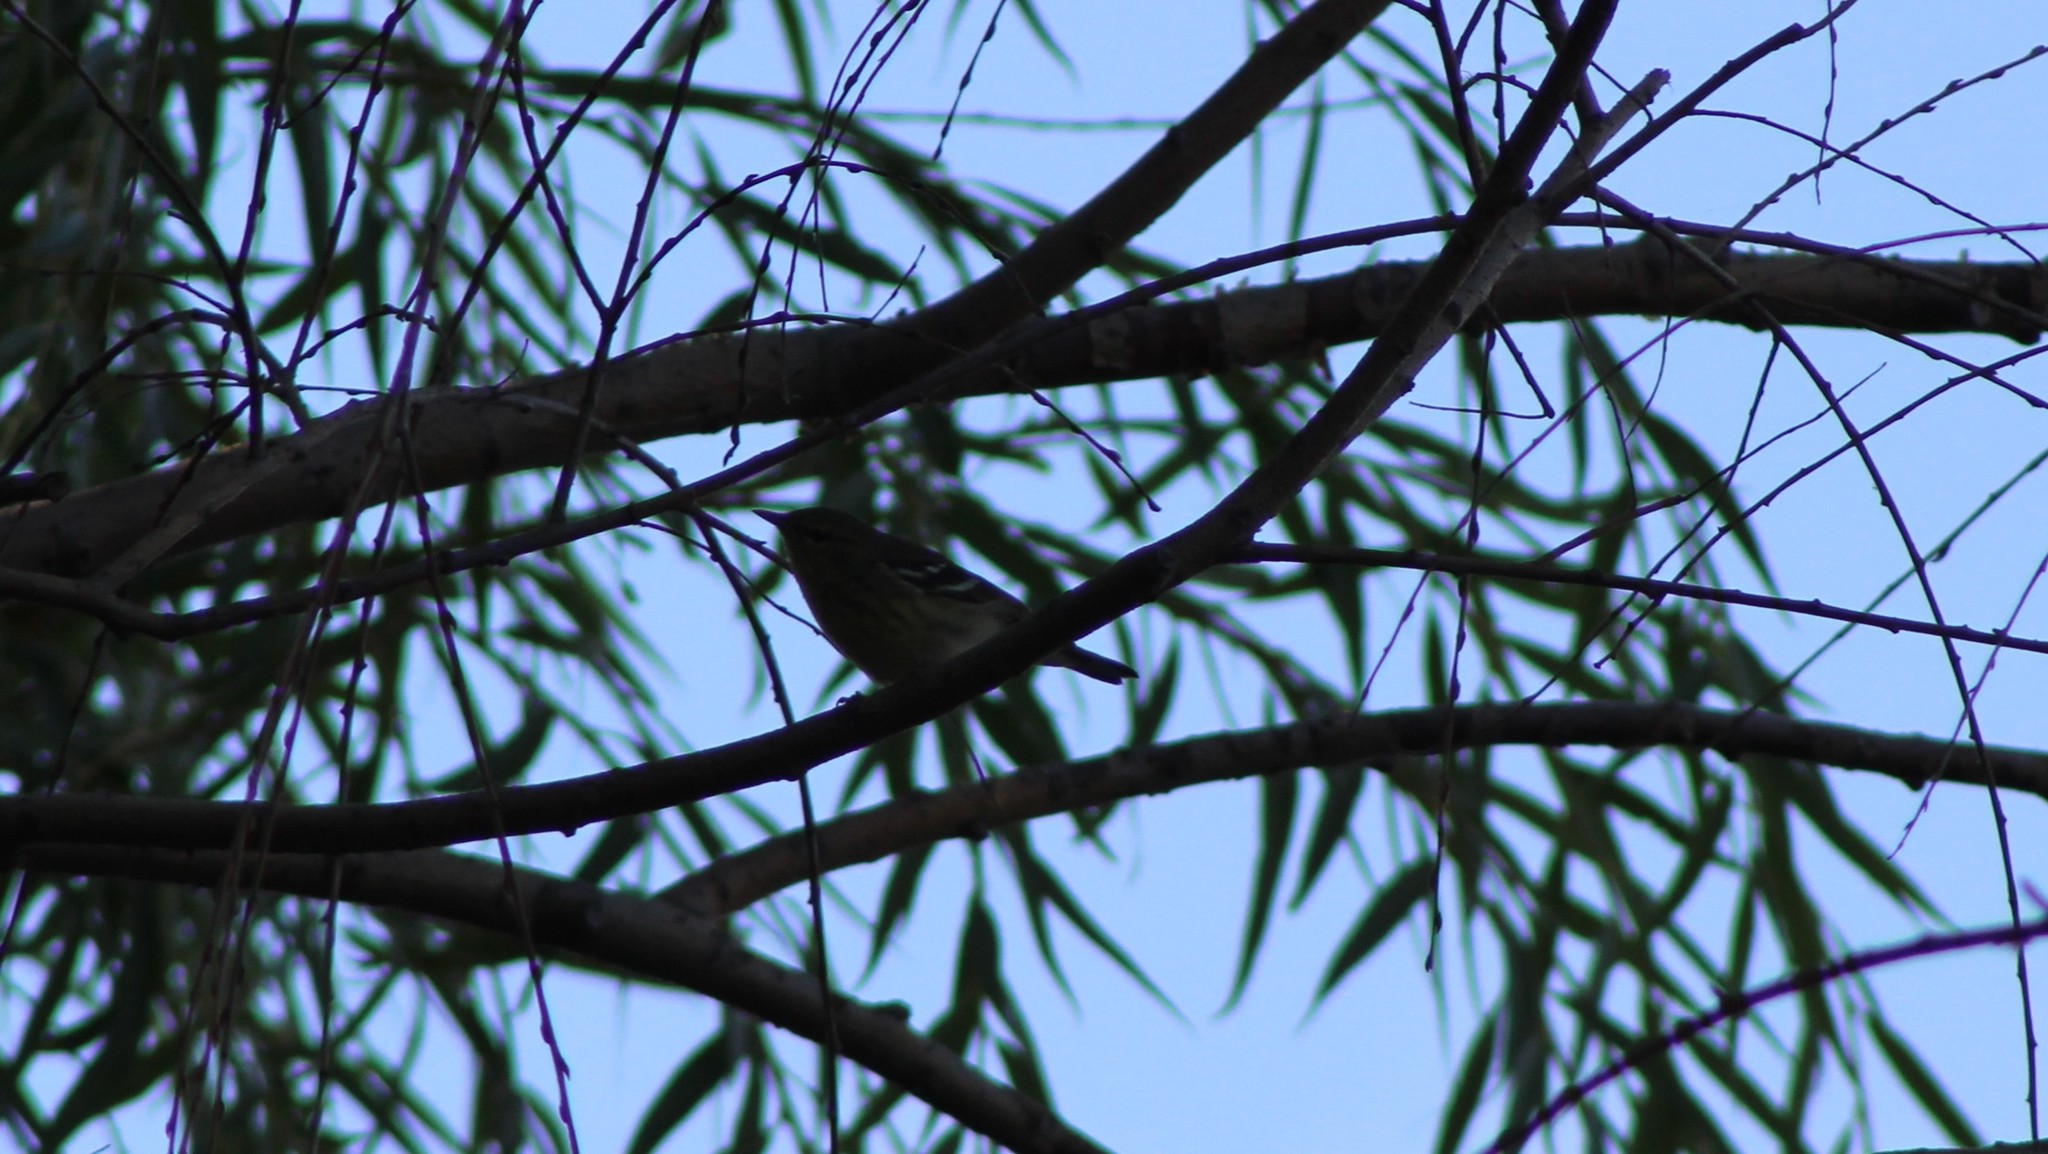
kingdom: Animalia
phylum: Chordata
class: Aves
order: Passeriformes
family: Parulidae
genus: Setophaga
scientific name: Setophaga striata
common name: Blackpoll warbler
